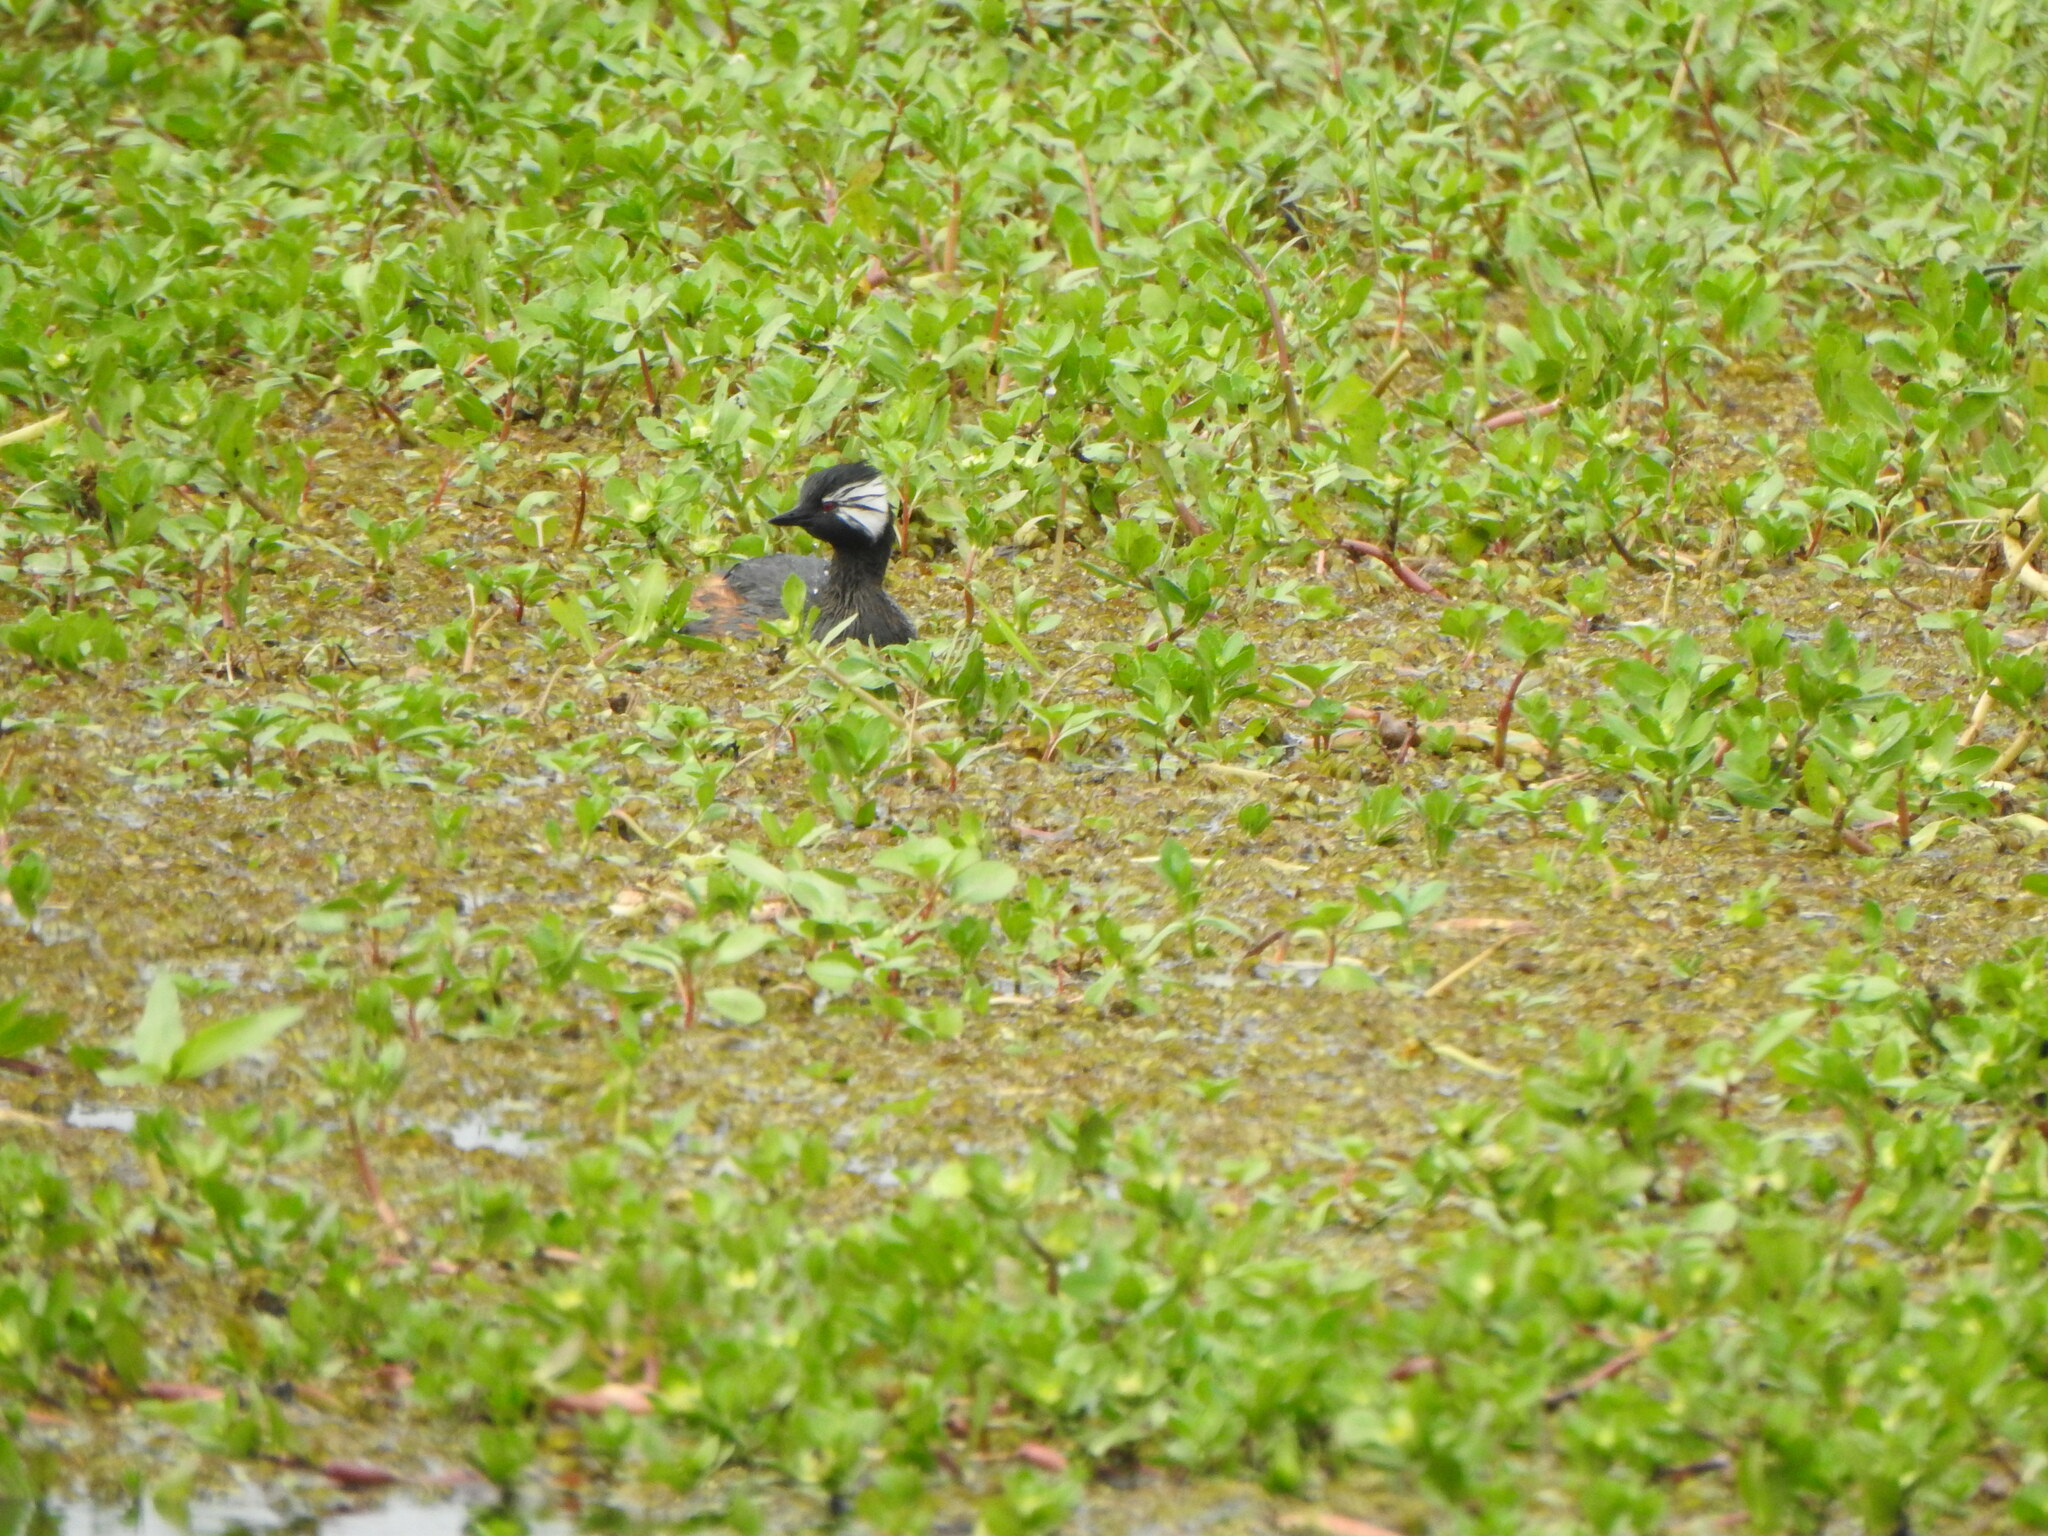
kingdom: Animalia
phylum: Chordata
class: Aves
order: Podicipediformes
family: Podicipedidae
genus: Rollandia
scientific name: Rollandia rolland
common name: White-tufted grebe
